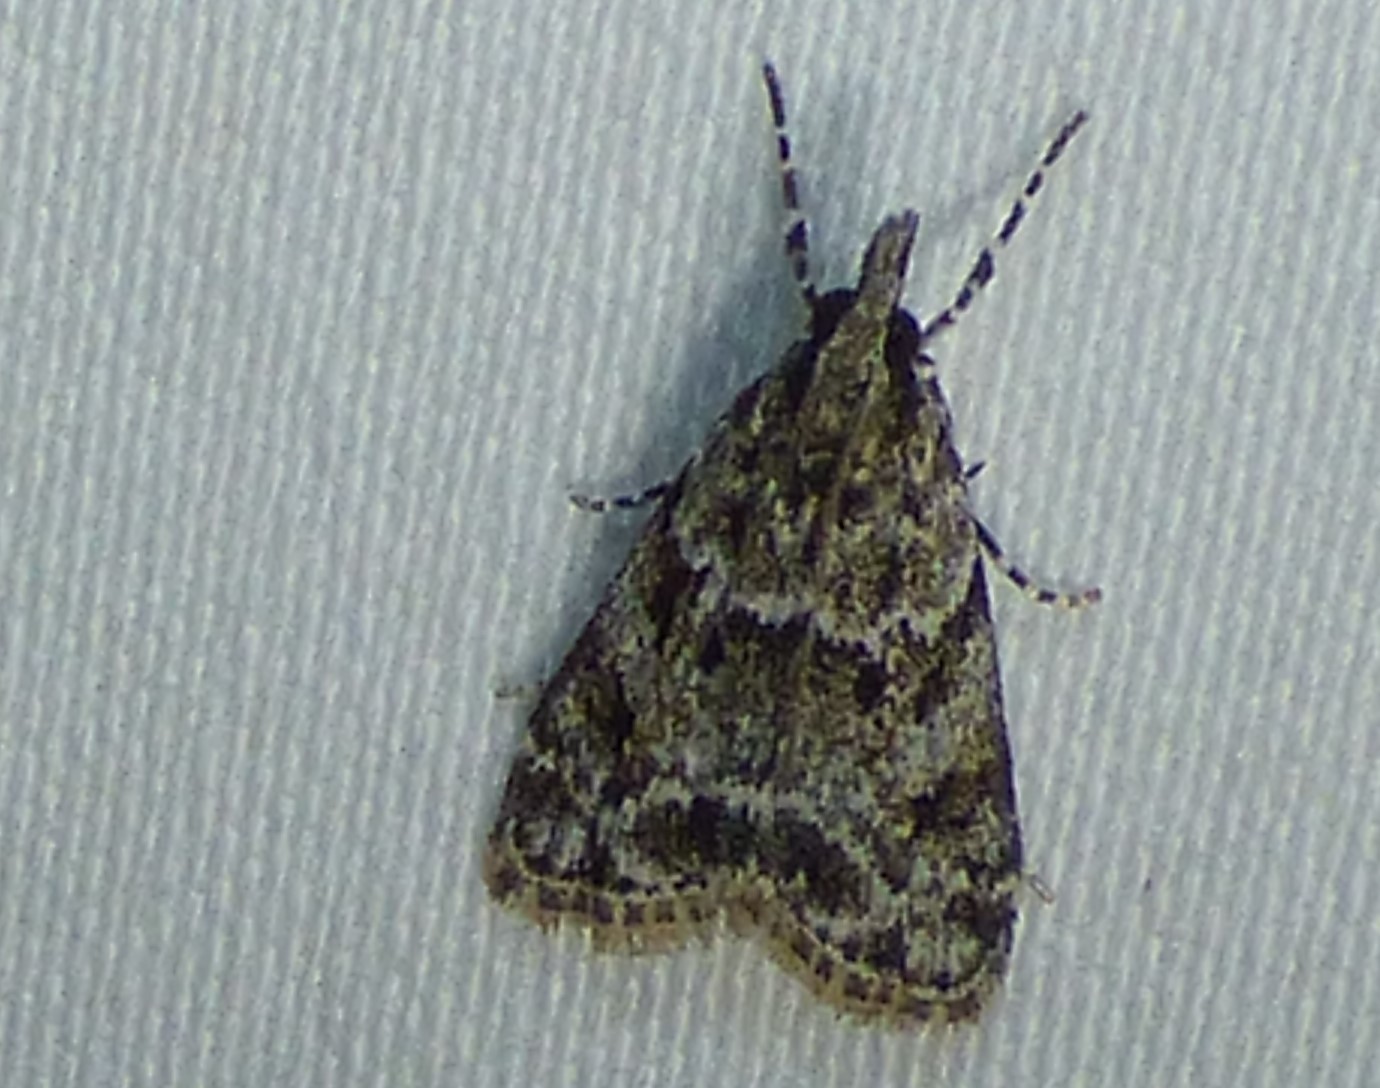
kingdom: Animalia
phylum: Arthropoda
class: Insecta
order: Lepidoptera
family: Crambidae
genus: Eudonia
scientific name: Eudonia heterosalis
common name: Mcdunnough's eudonia
